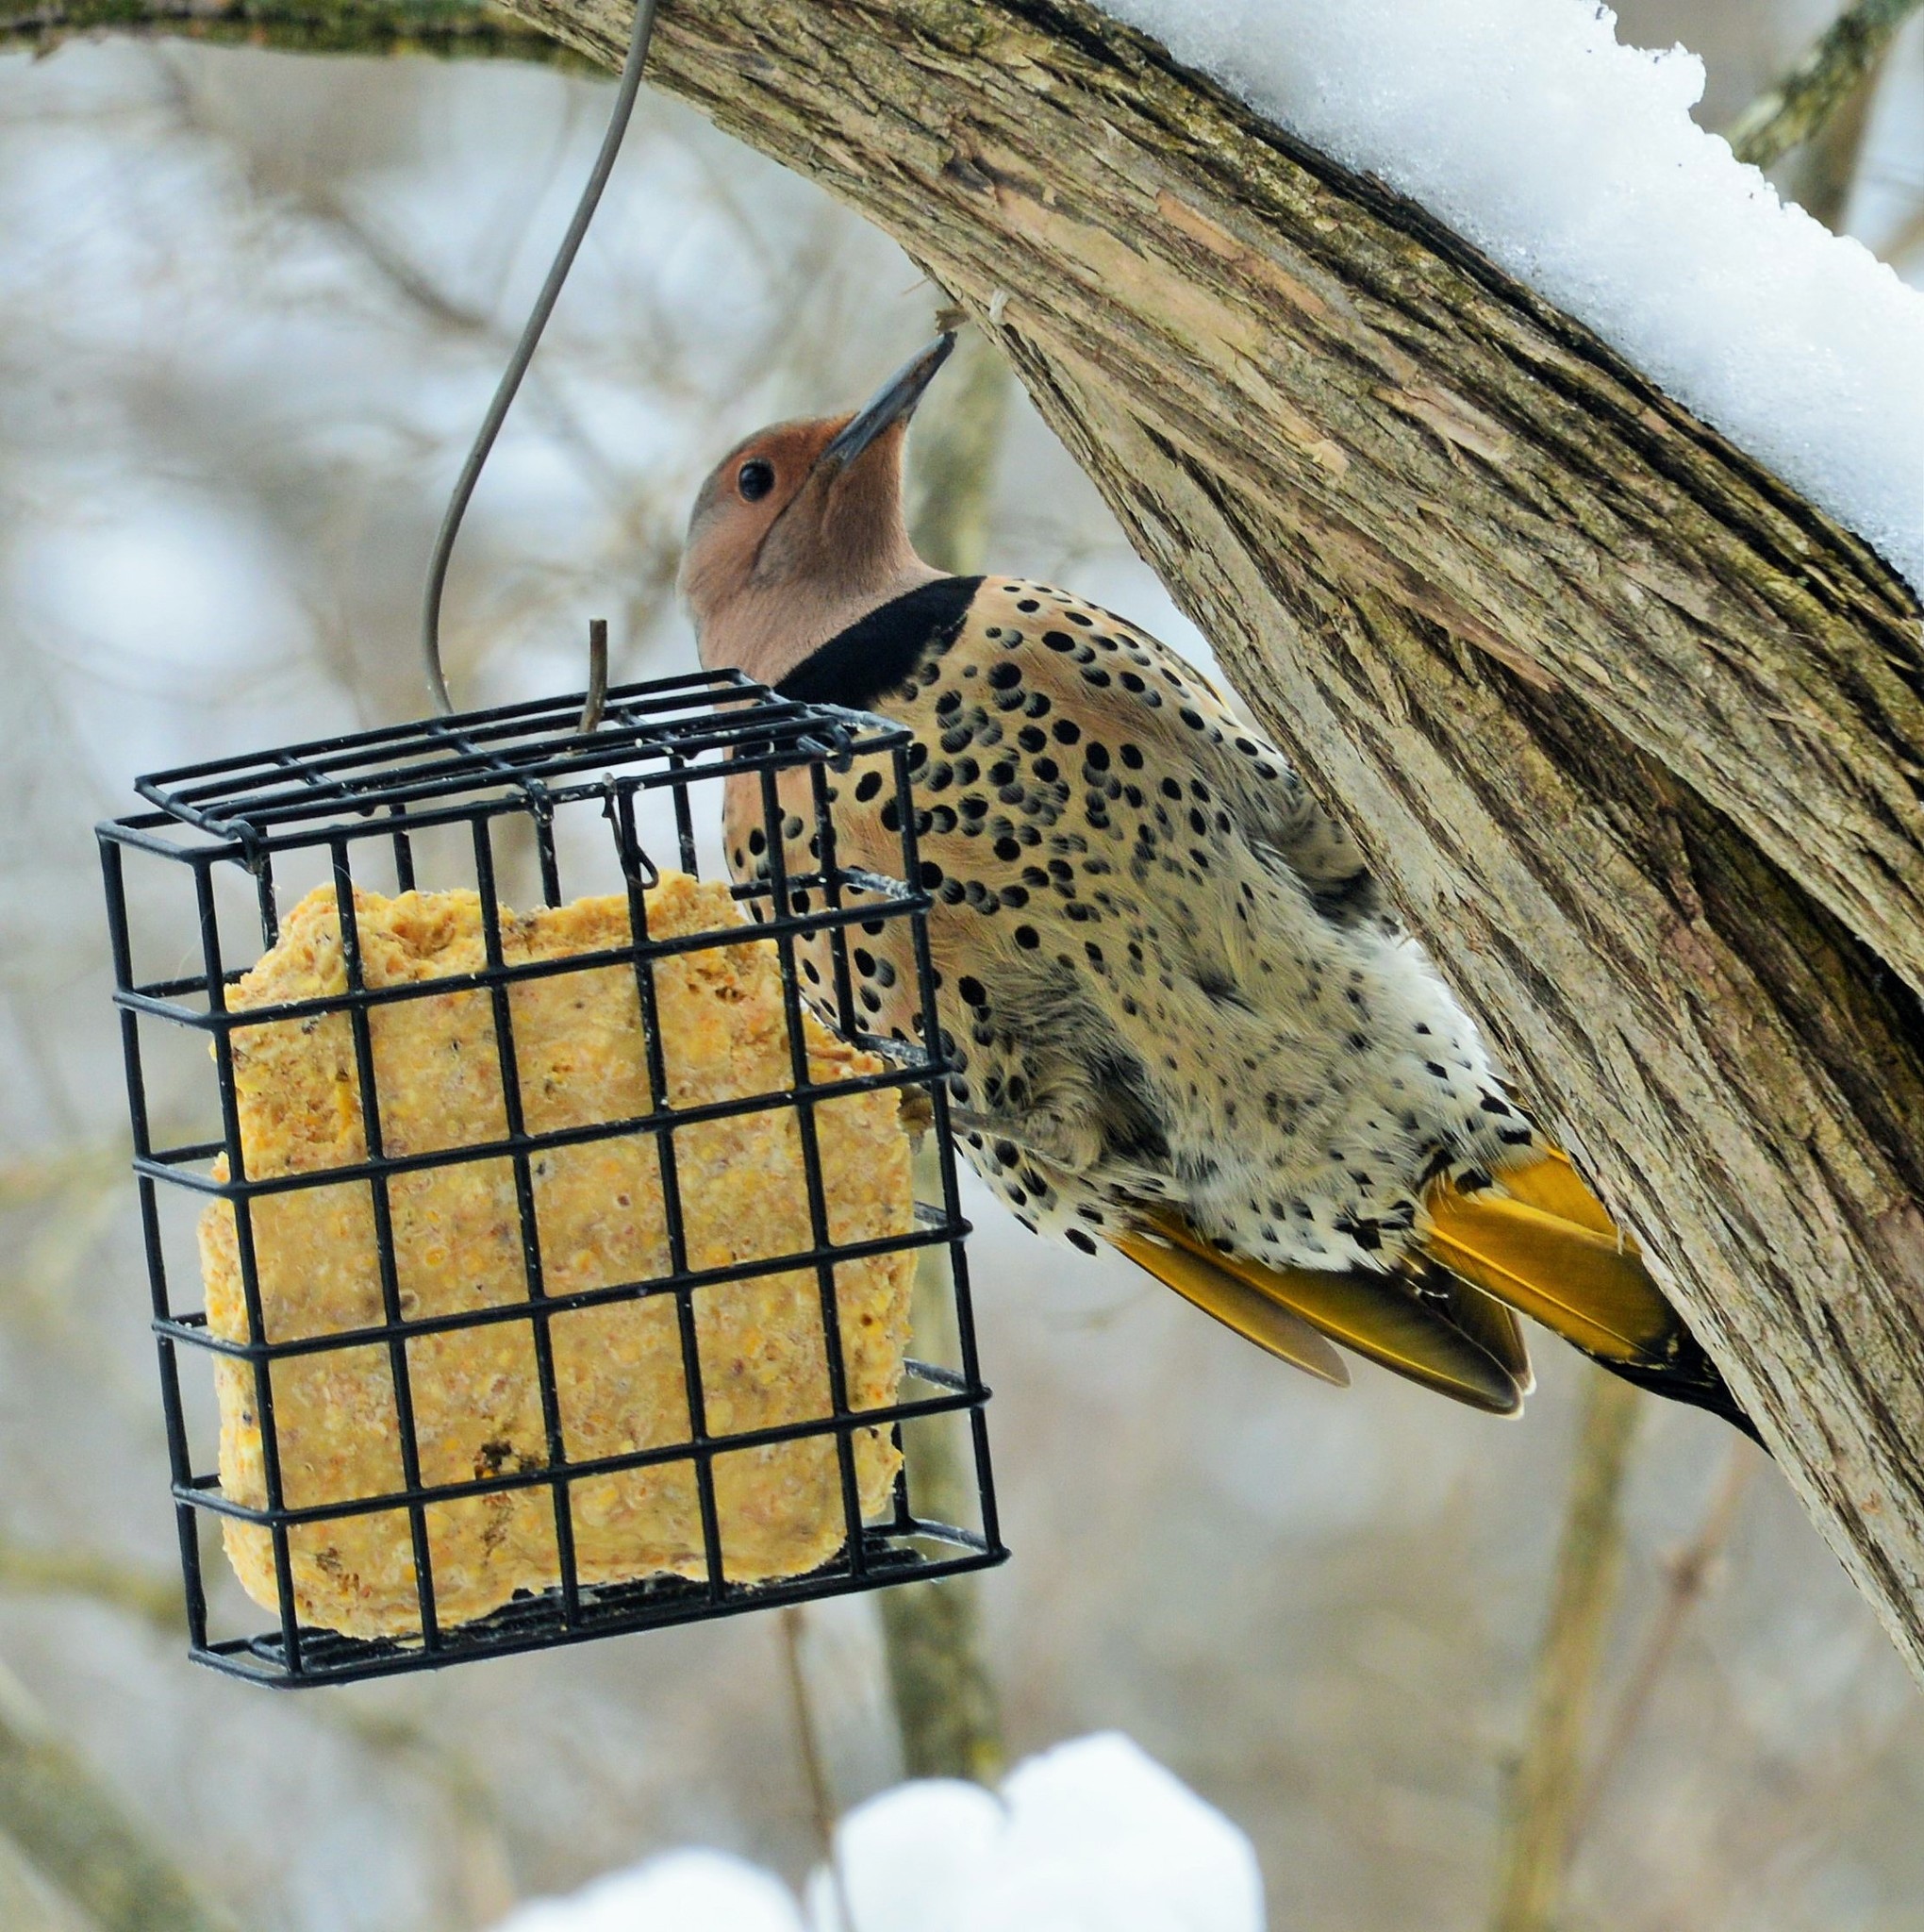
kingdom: Animalia
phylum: Chordata
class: Aves
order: Piciformes
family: Picidae
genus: Colaptes
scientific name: Colaptes auratus
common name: Northern flicker
